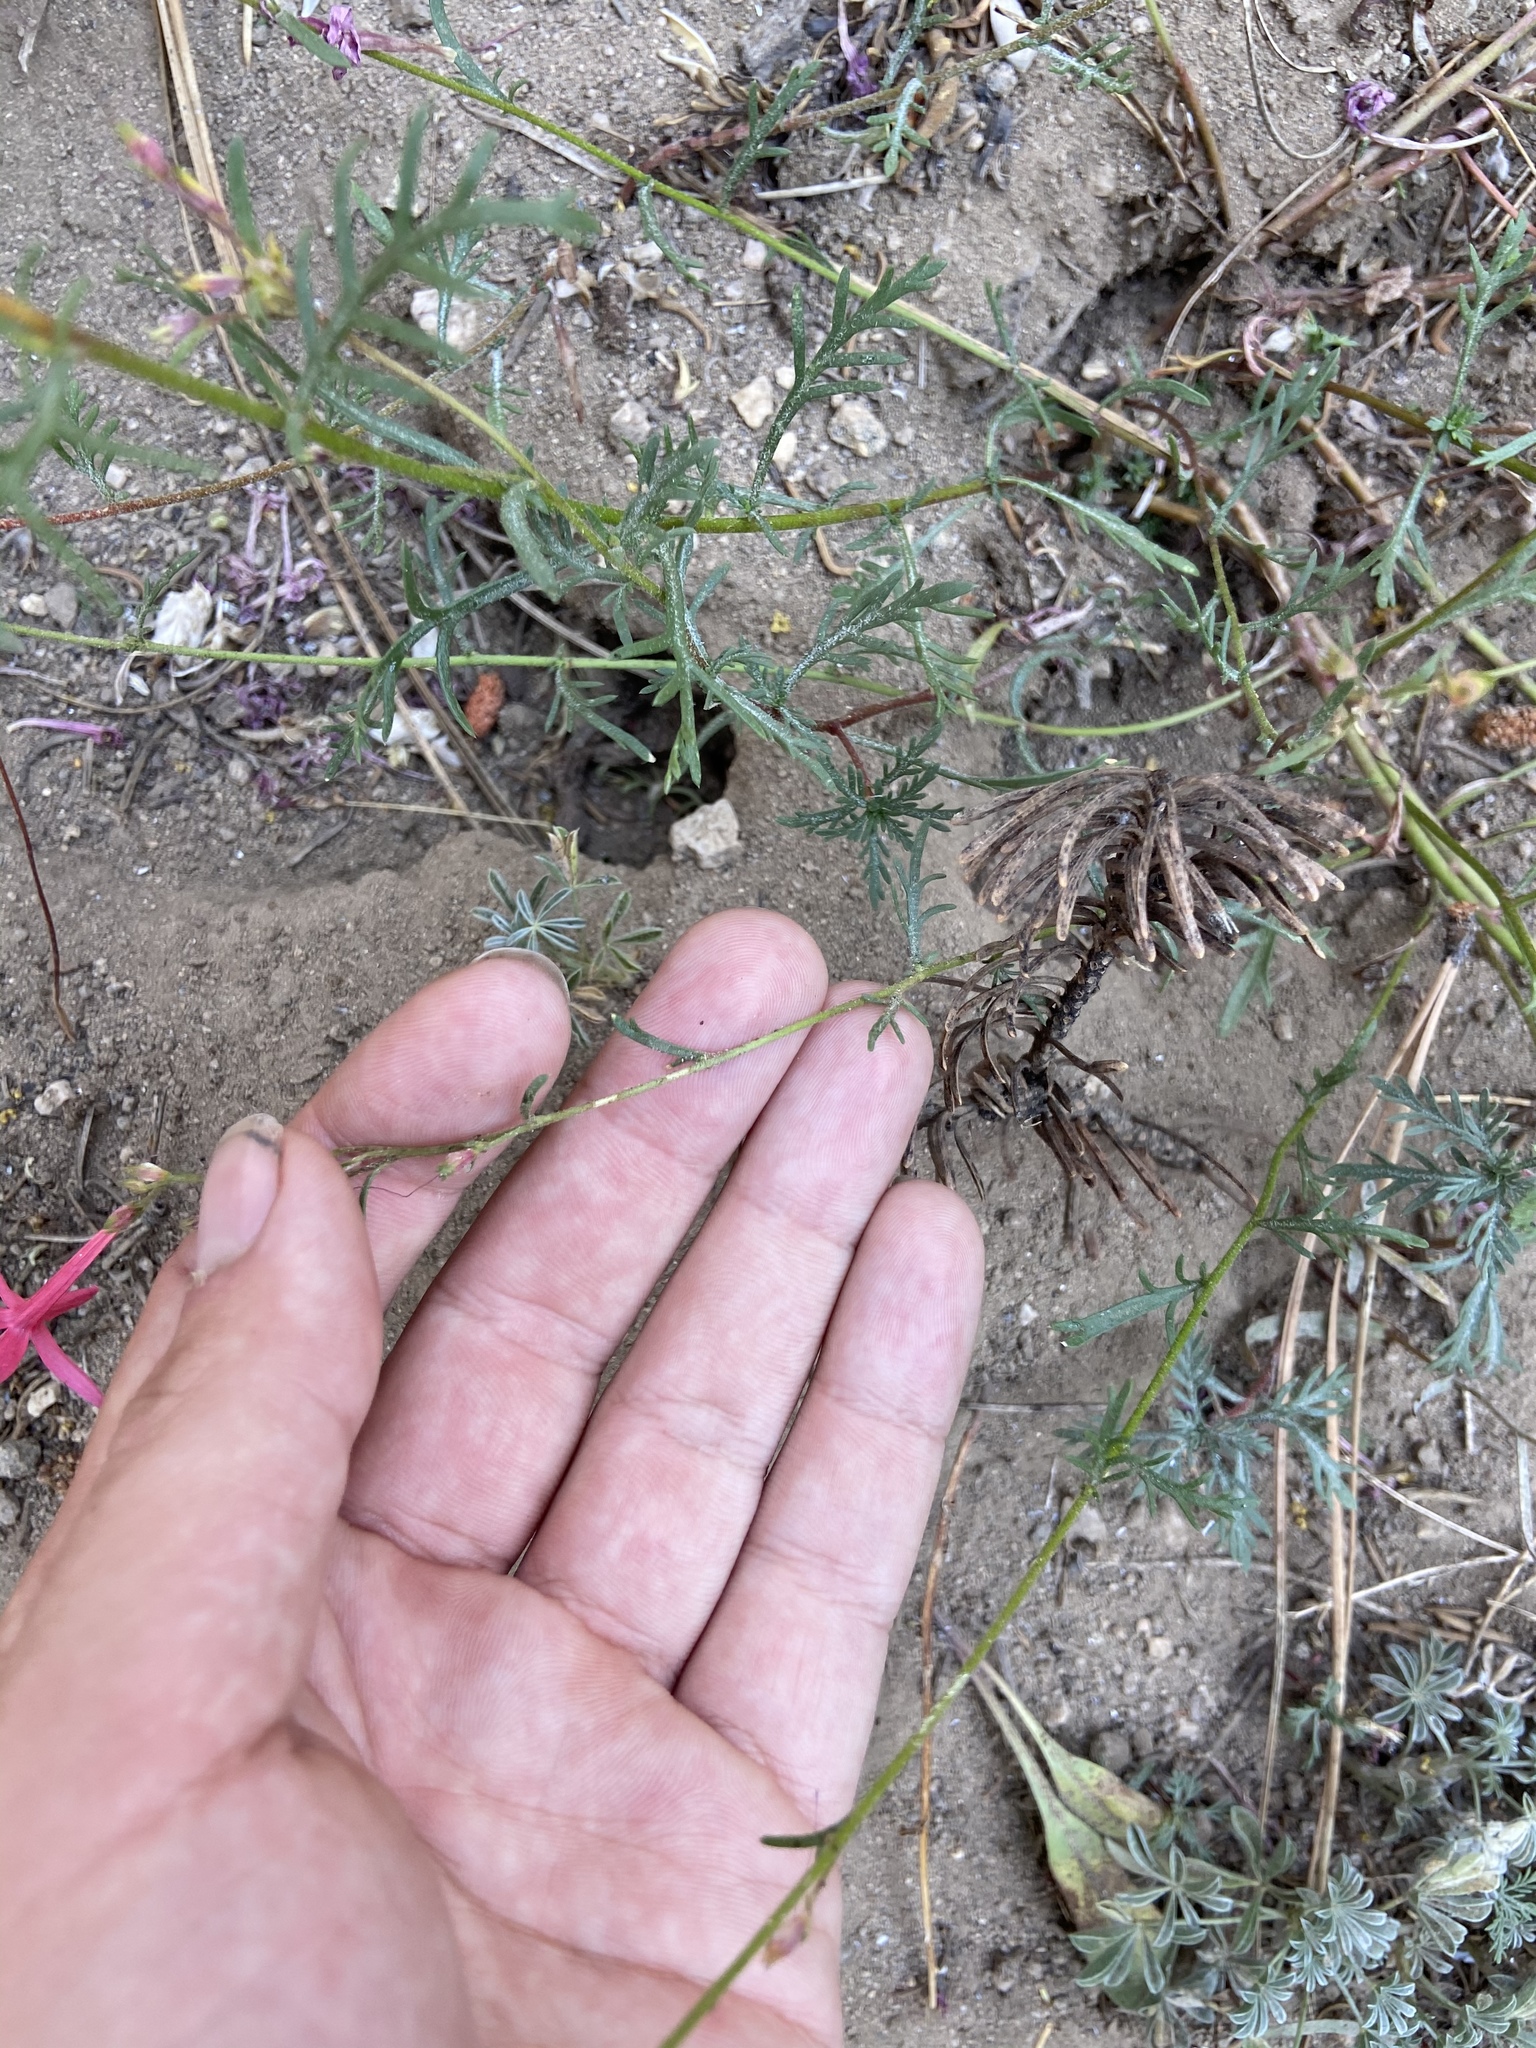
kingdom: Plantae
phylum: Tracheophyta
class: Magnoliopsida
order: Ericales
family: Polemoniaceae
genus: Ipomopsis
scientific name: Ipomopsis aggregata
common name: Scarlet gilia
